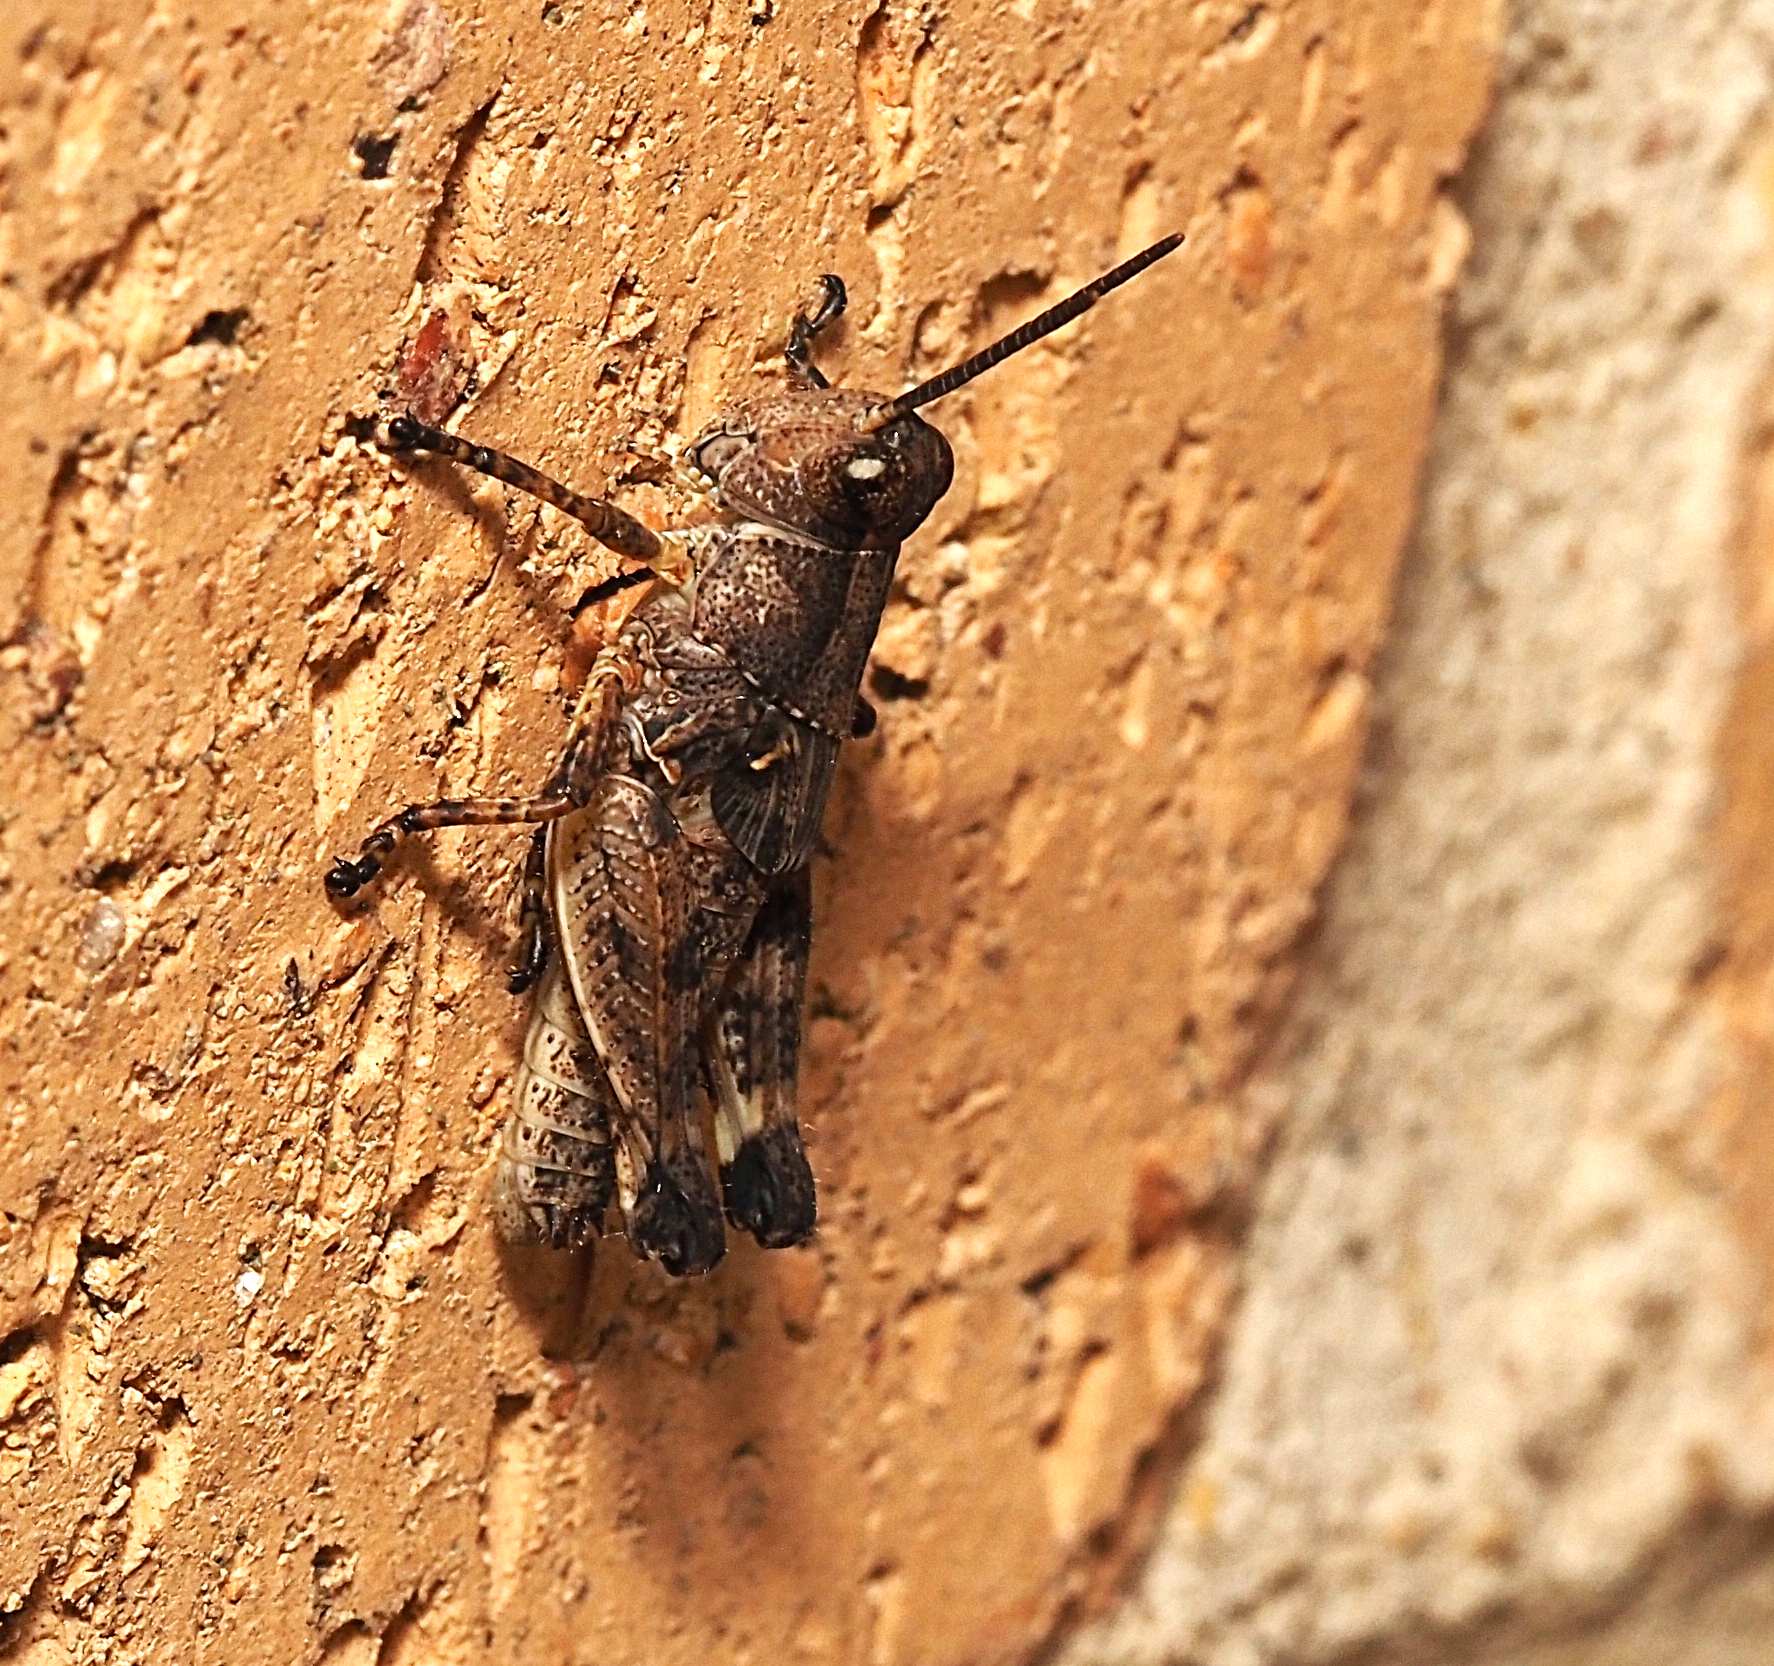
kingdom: Animalia
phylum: Arthropoda
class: Insecta
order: Orthoptera
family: Acrididae
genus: Phaulacridium
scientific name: Phaulacridium vittatum
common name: Wingless grasshopper
